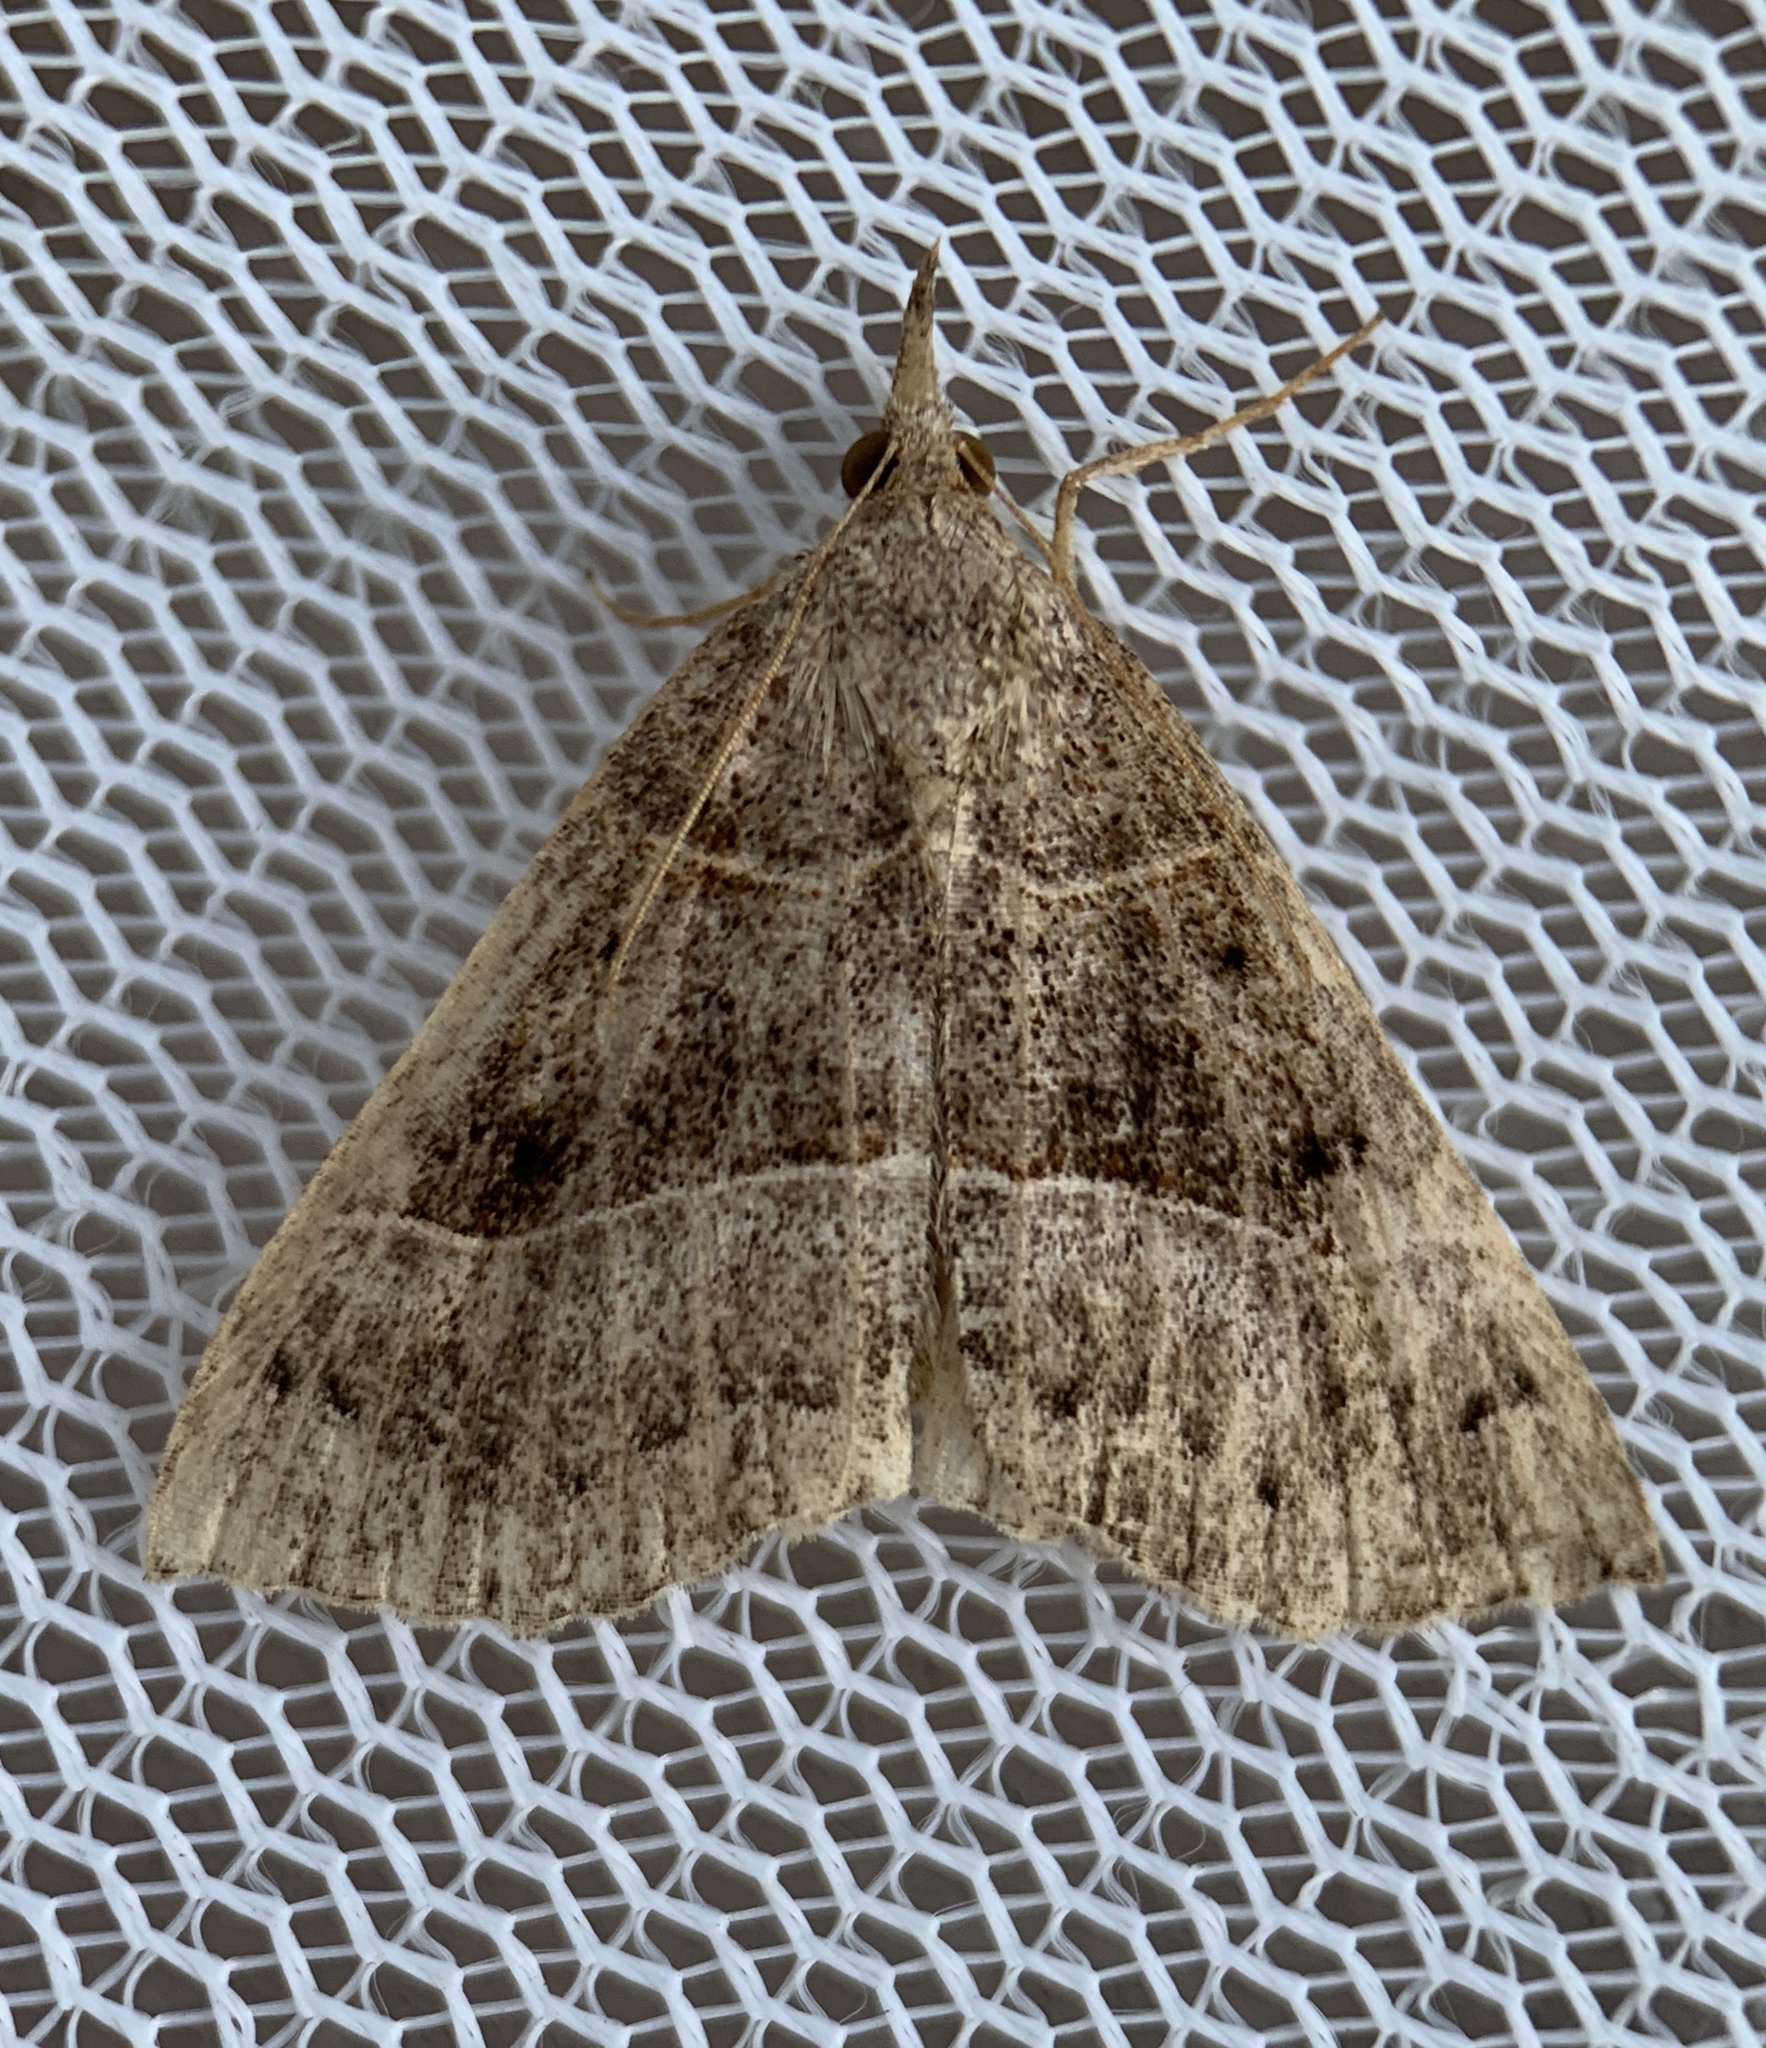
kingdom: Animalia
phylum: Arthropoda
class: Insecta
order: Lepidoptera
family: Erebidae
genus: Hypena
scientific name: Hypena deceptalis
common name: Deceptive snout
